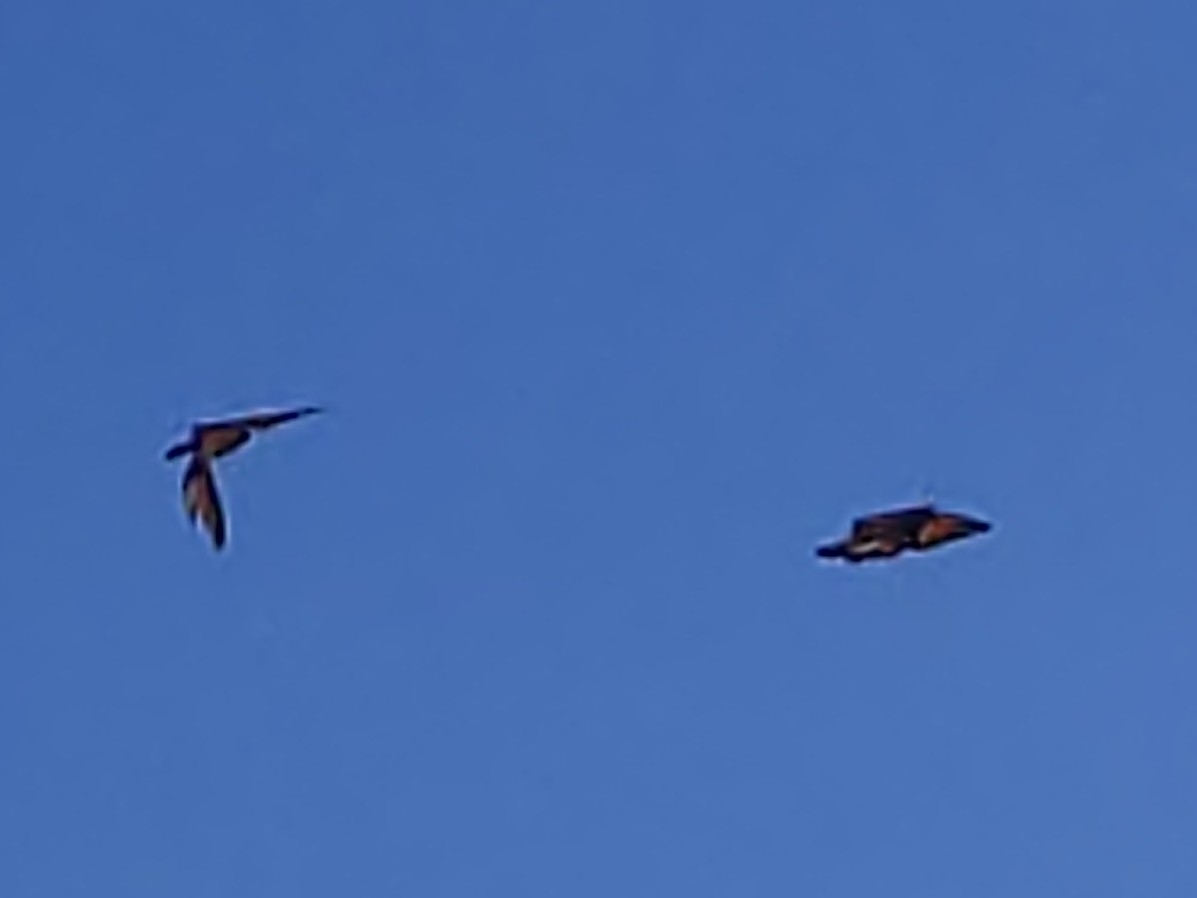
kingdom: Animalia
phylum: Arthropoda
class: Insecta
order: Lepidoptera
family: Nymphalidae
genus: Danaus
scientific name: Danaus plexippus
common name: Monarch
